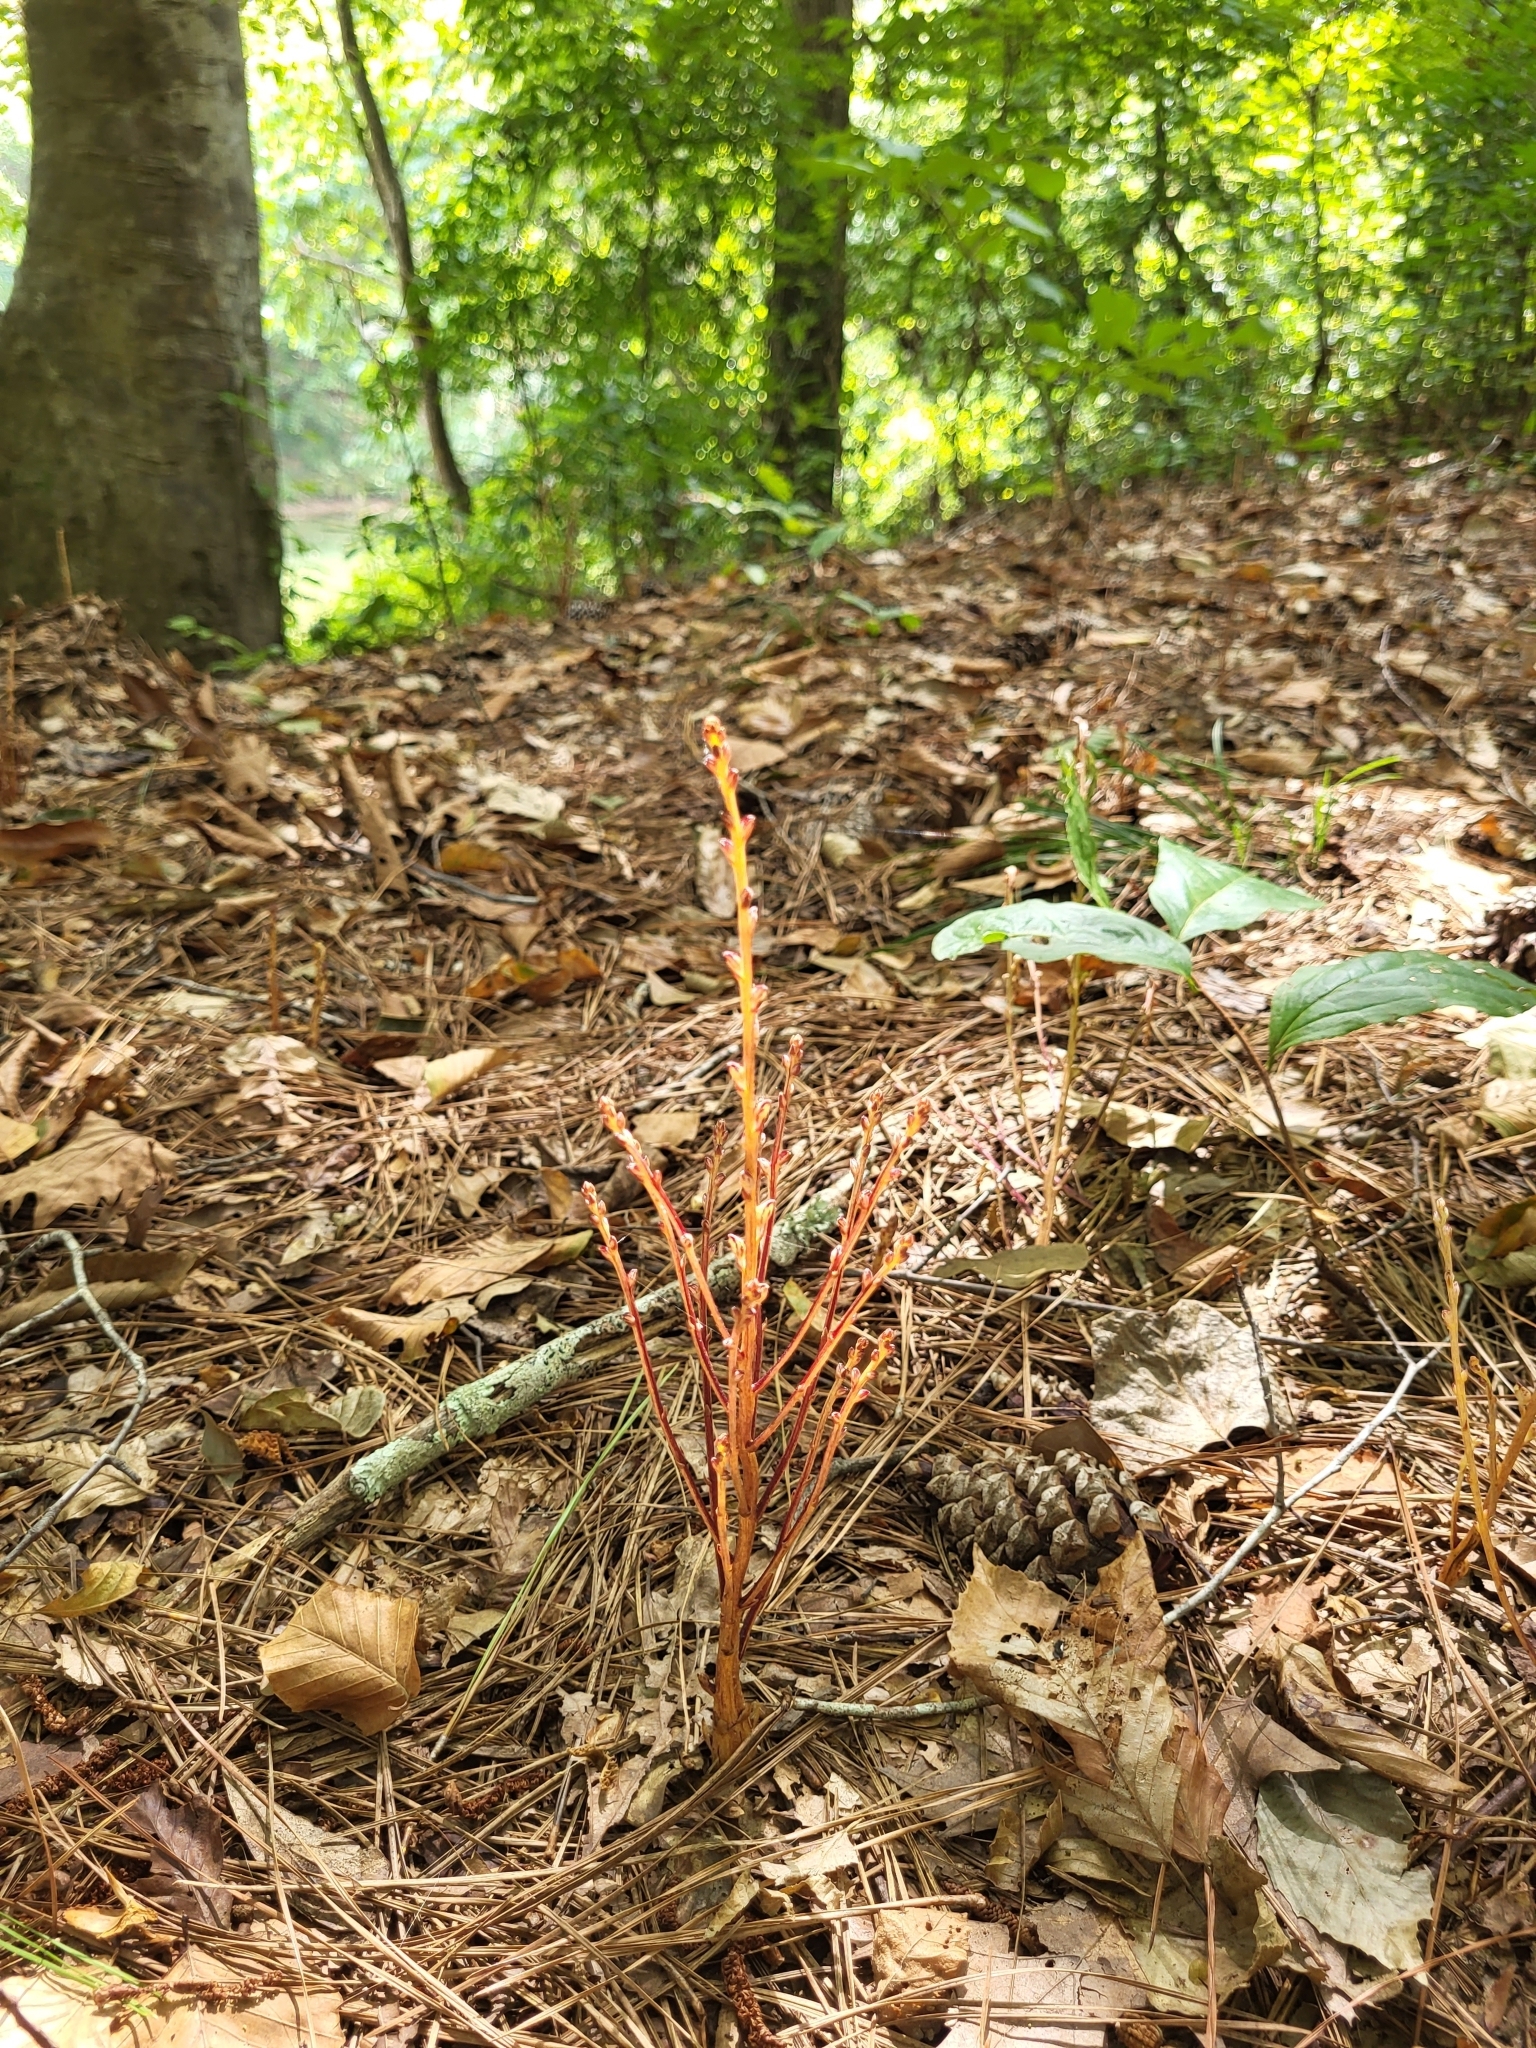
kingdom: Plantae
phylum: Tracheophyta
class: Magnoliopsida
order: Lamiales
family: Orobanchaceae
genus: Epifagus
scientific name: Epifagus virginiana
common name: Beechdrops
